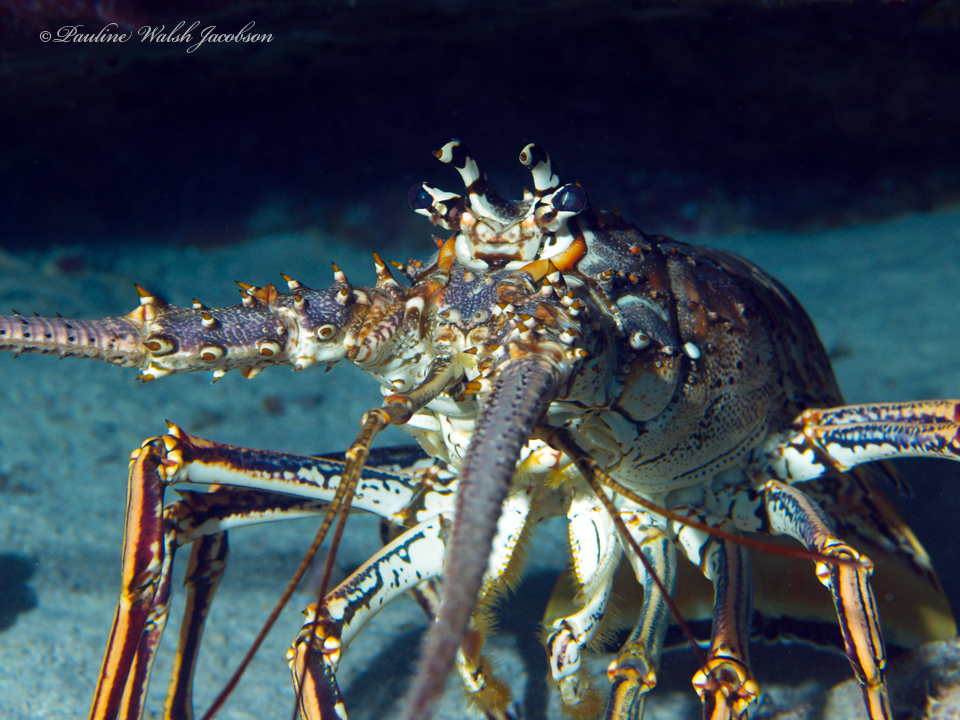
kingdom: Animalia
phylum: Arthropoda
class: Malacostraca
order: Decapoda
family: Palinuridae
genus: Panulirus
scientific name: Panulirus argus
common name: Caribbean spiny lobster
